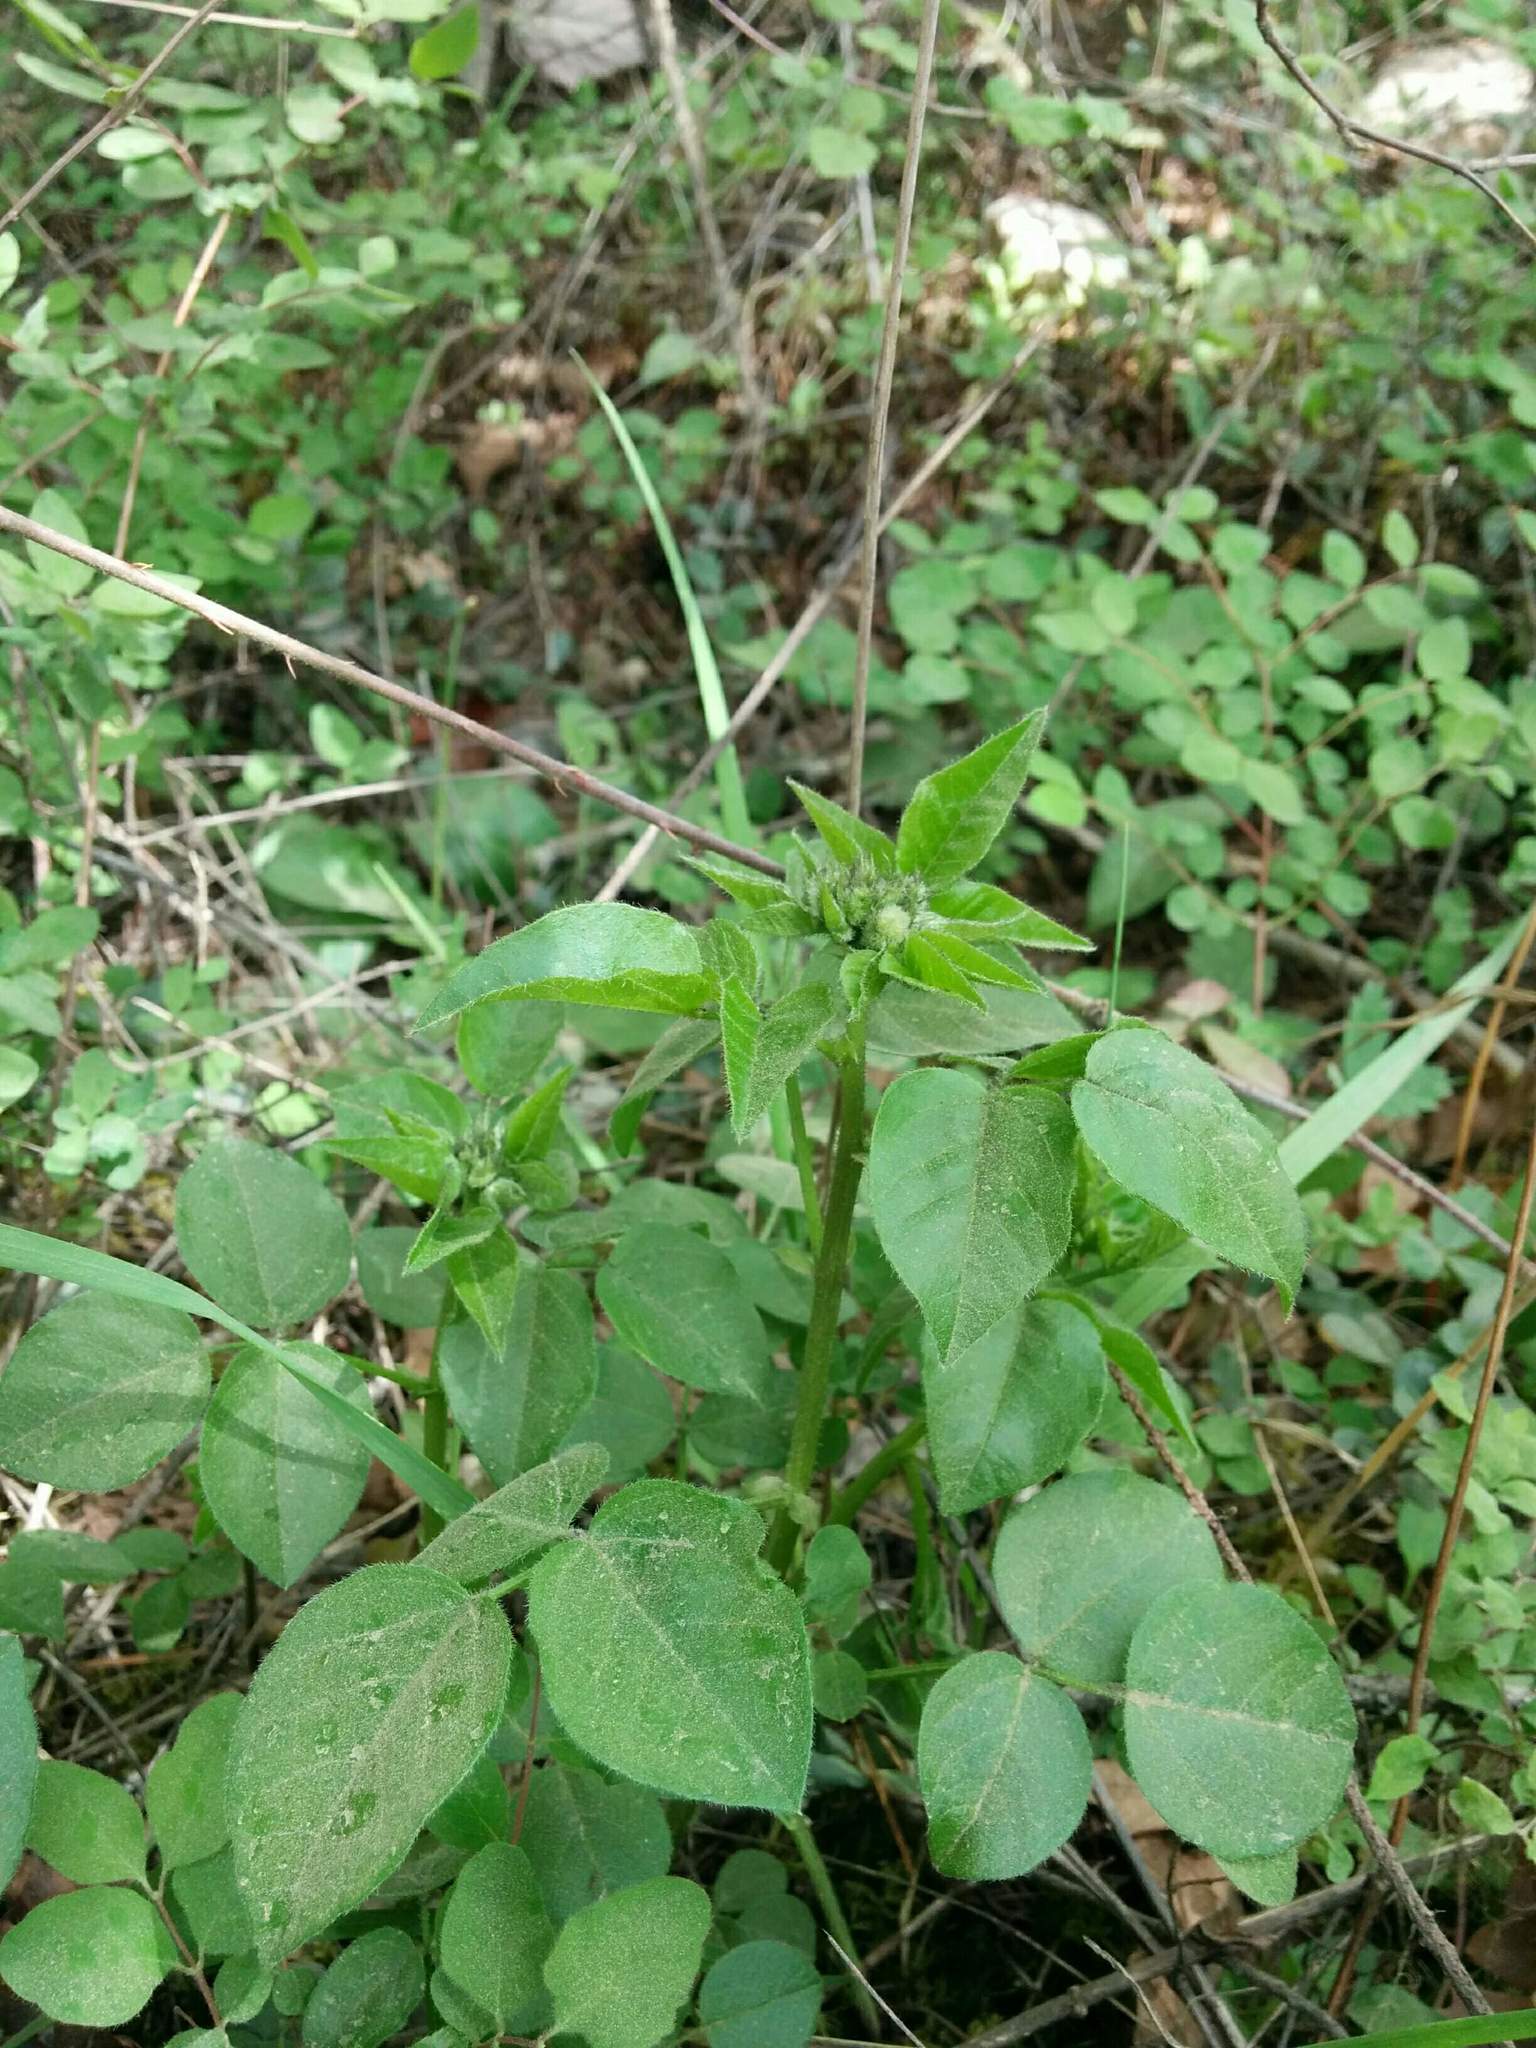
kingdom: Plantae
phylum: Tracheophyta
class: Magnoliopsida
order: Fabales
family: Fabaceae
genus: Rupertia
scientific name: Rupertia physodes
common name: California-tea
